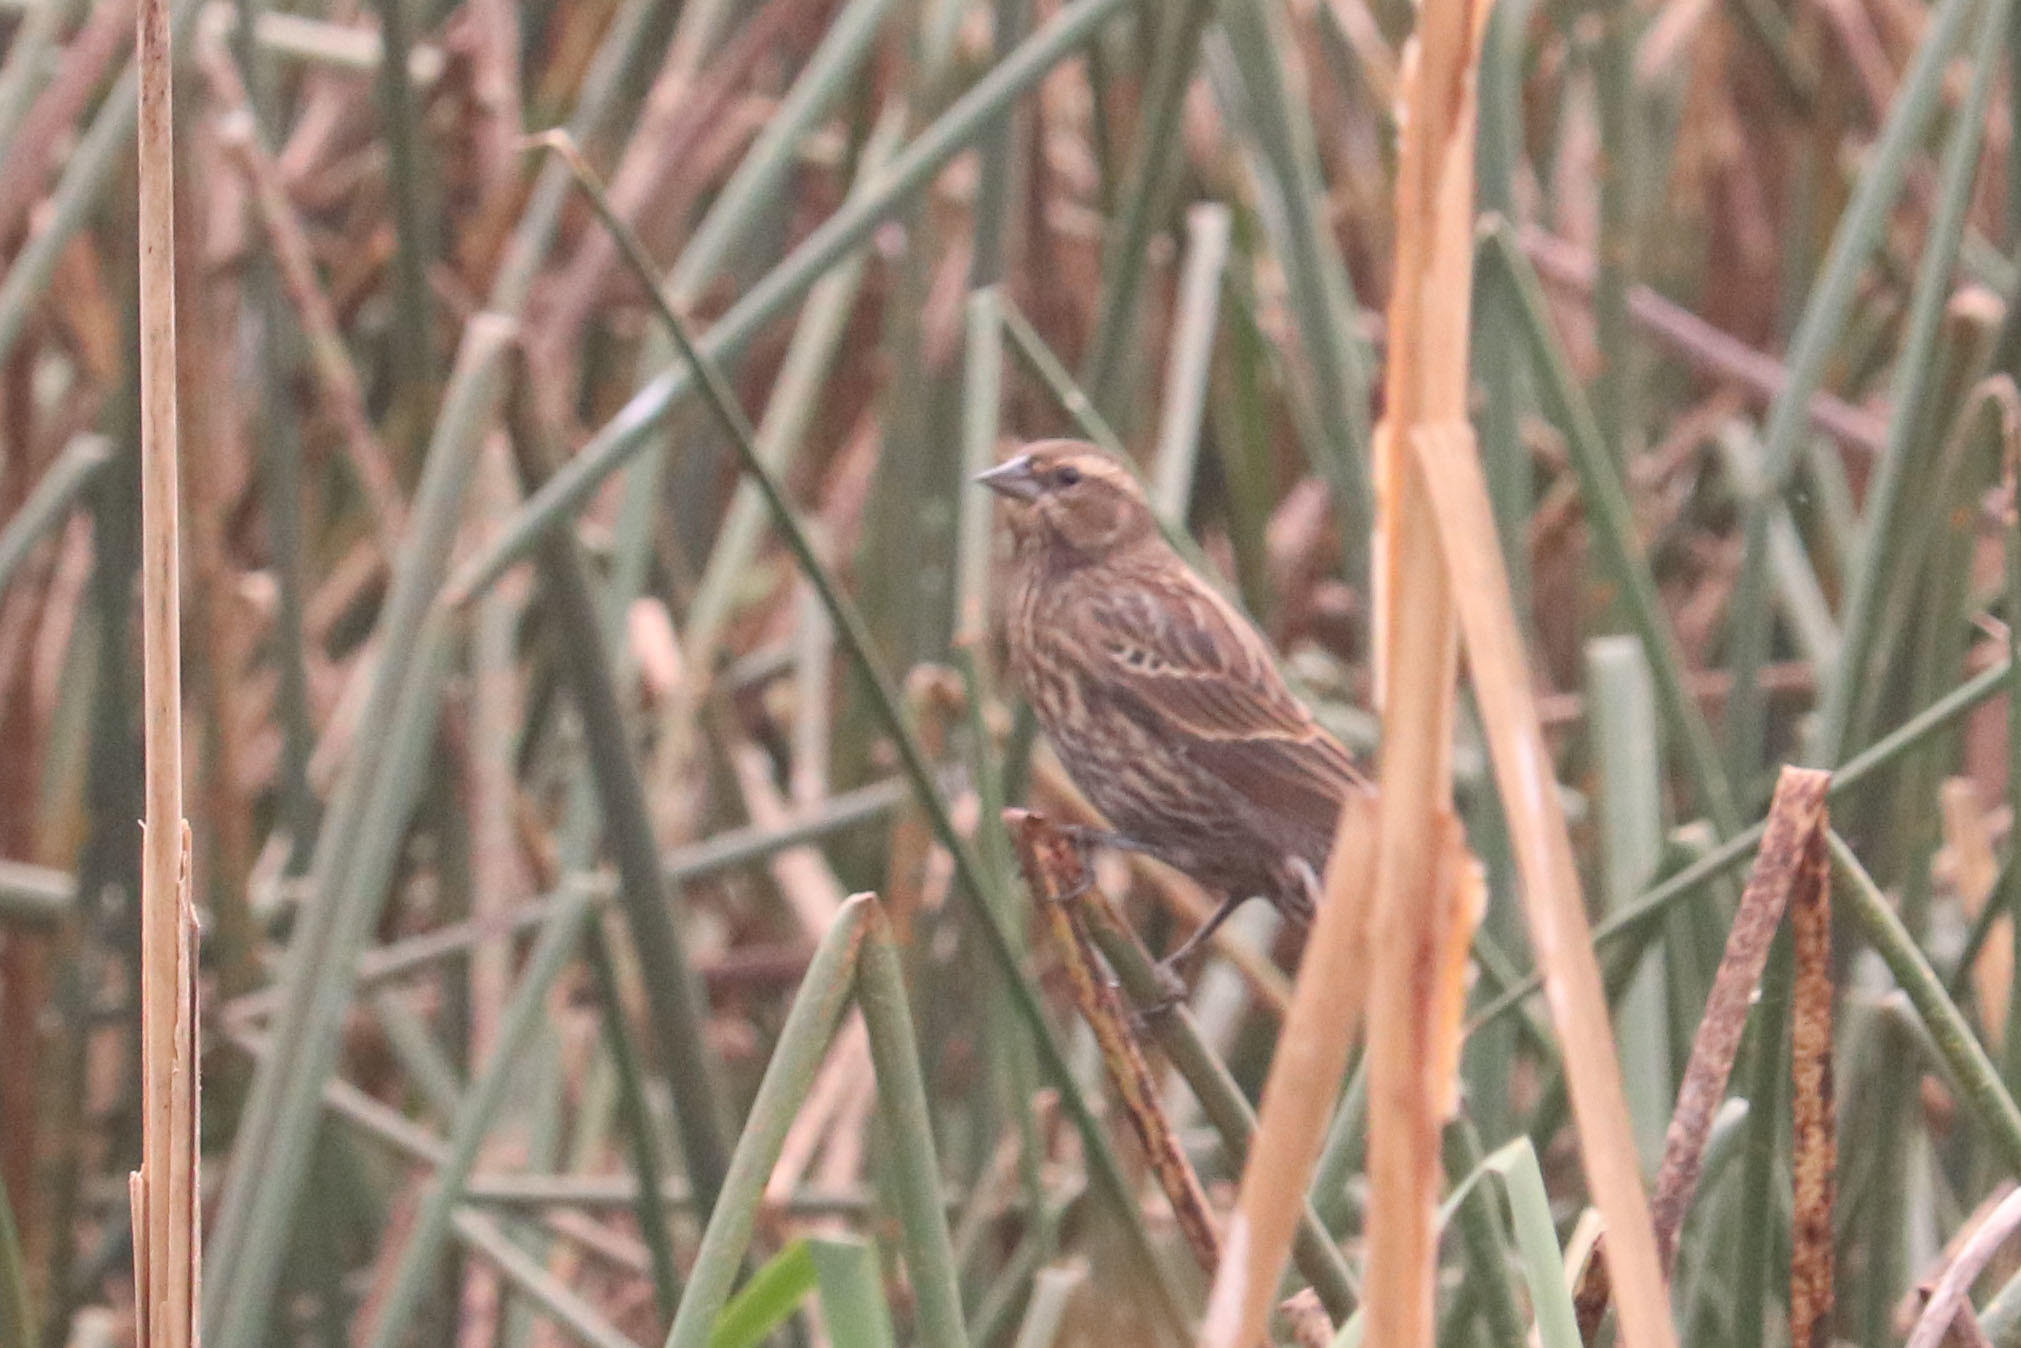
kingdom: Animalia
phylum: Chordata
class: Aves
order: Passeriformes
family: Icteridae
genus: Agelaius
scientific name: Agelaius phoeniceus
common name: Red-winged blackbird
